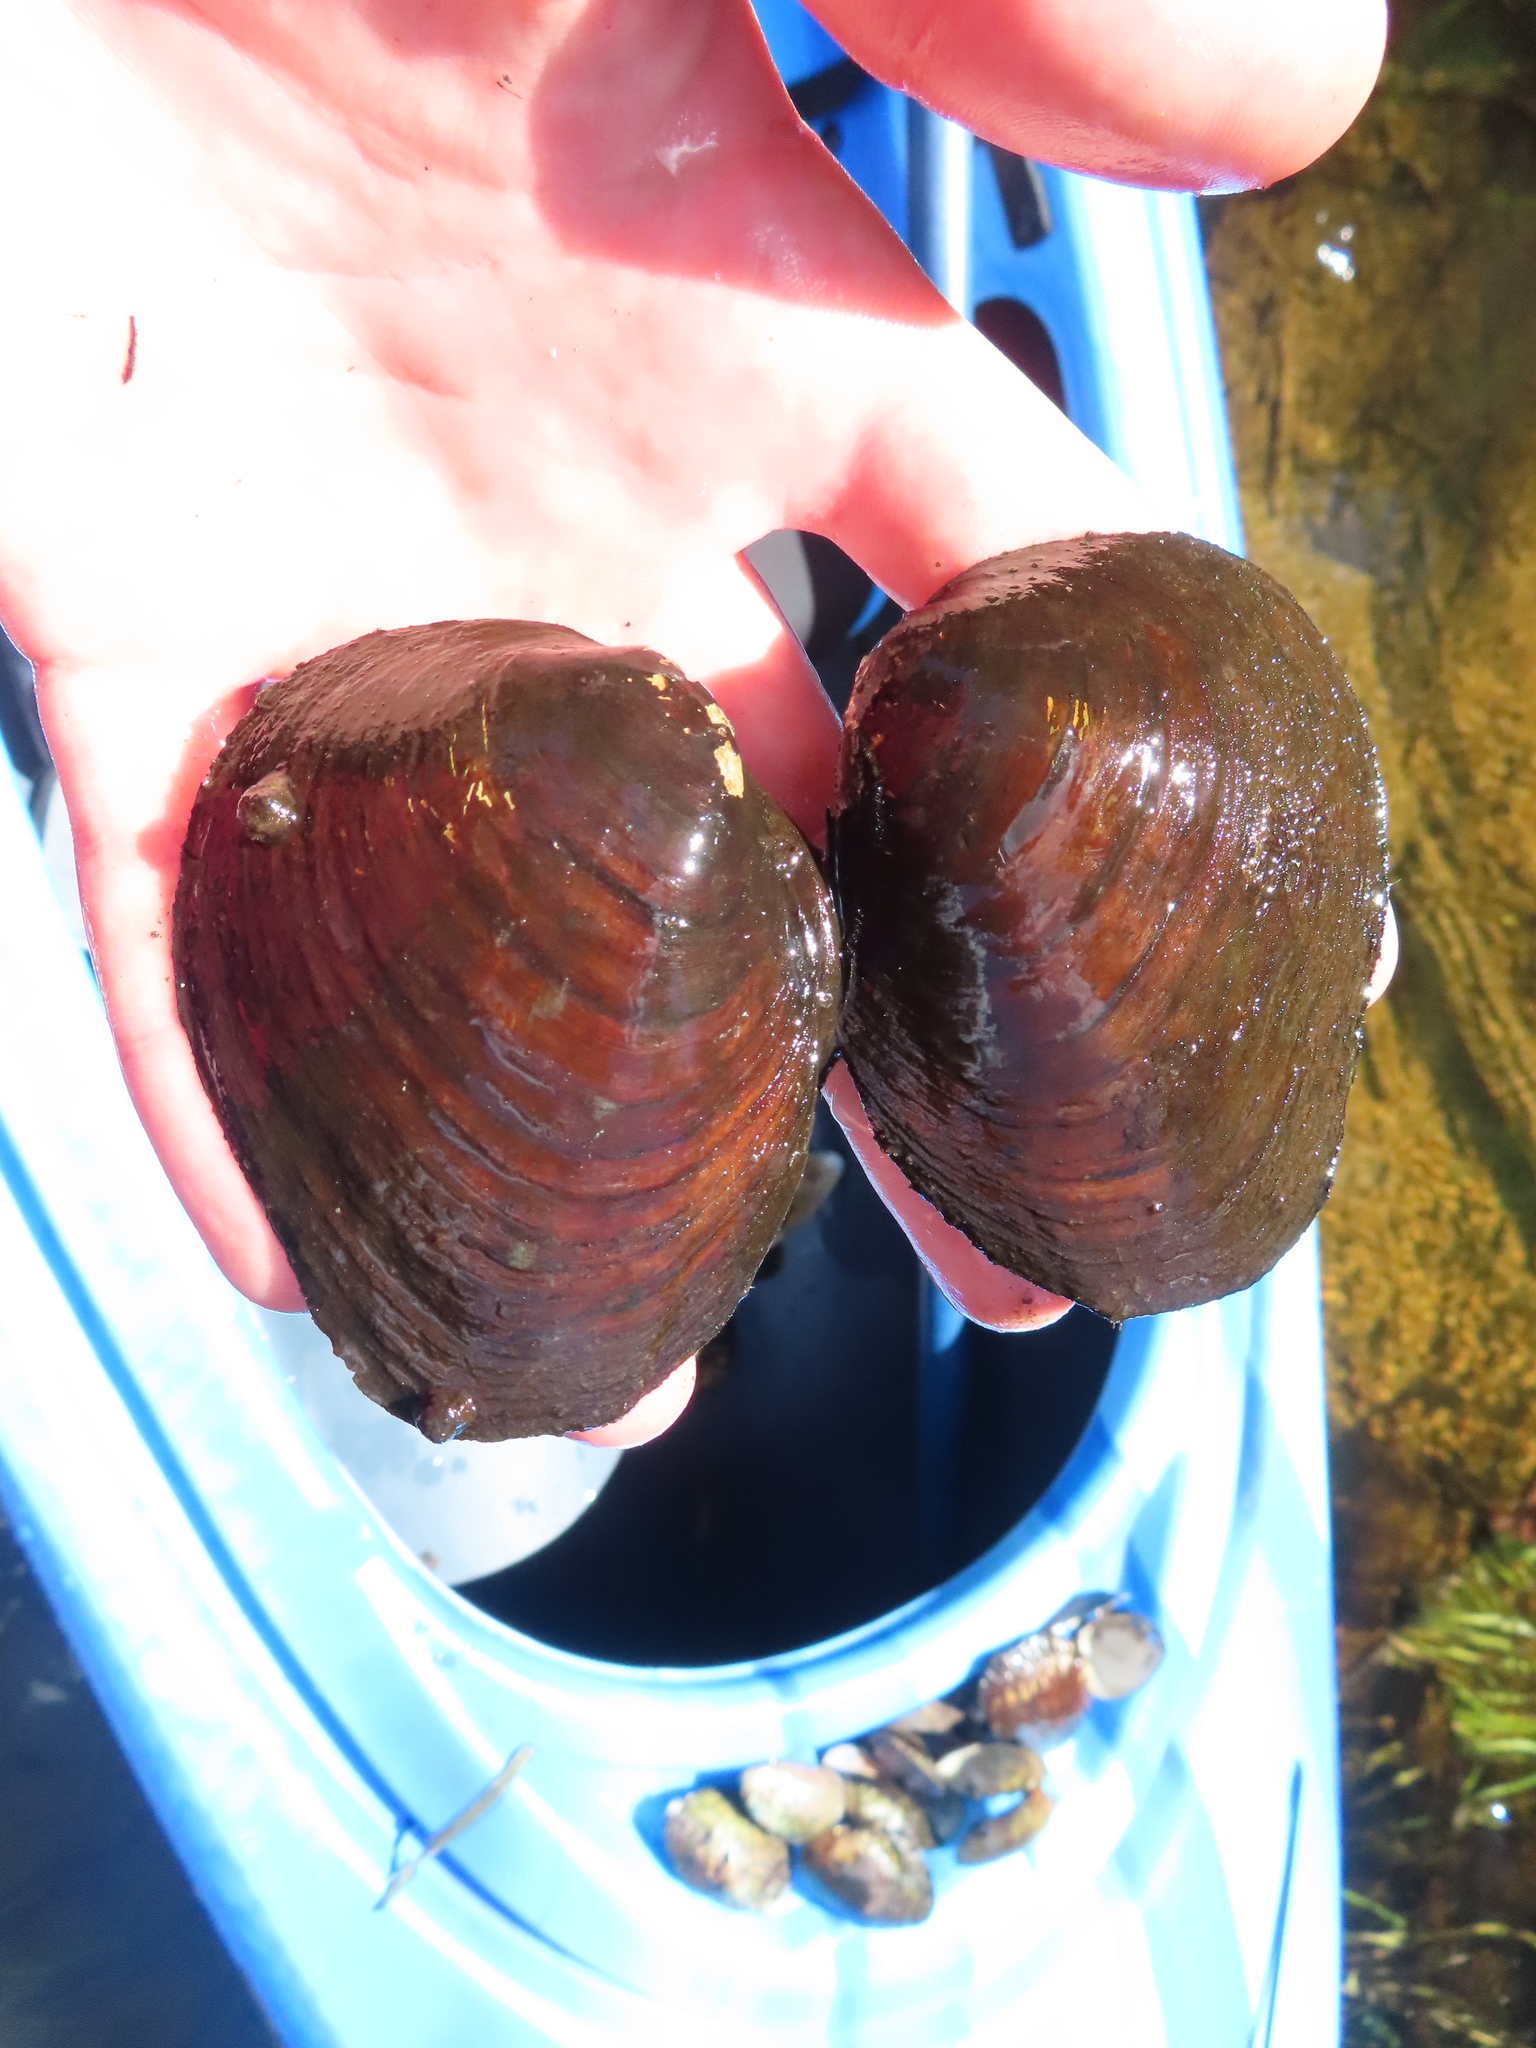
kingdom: Animalia
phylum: Mollusca
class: Bivalvia
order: Unionida
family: Unionidae
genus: Pleurobema
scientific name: Pleurobema sintoxia
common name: Round pigtoe
